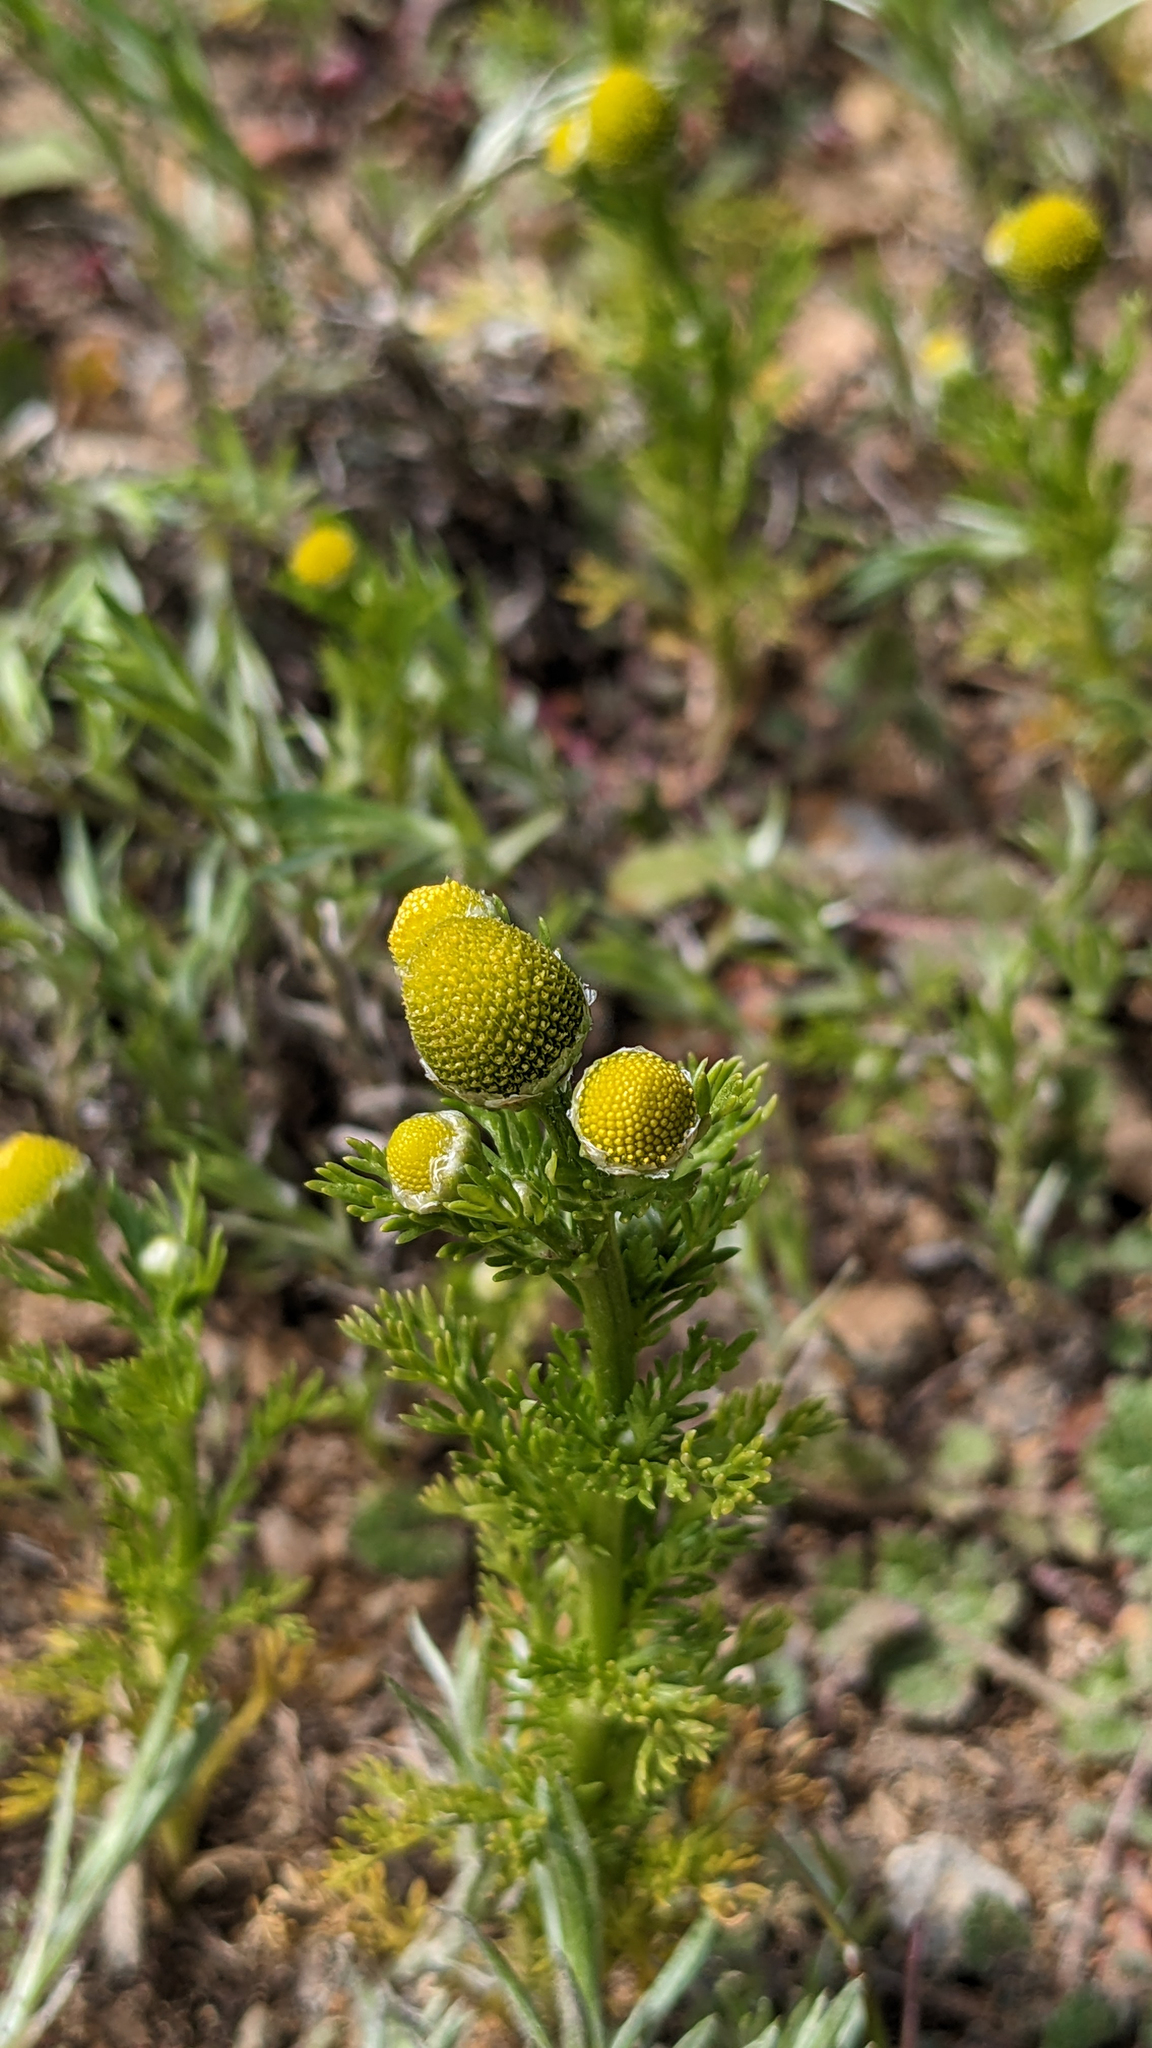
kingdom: Plantae
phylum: Tracheophyta
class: Magnoliopsida
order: Asterales
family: Asteraceae
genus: Matricaria
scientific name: Matricaria discoidea
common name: Disc mayweed
